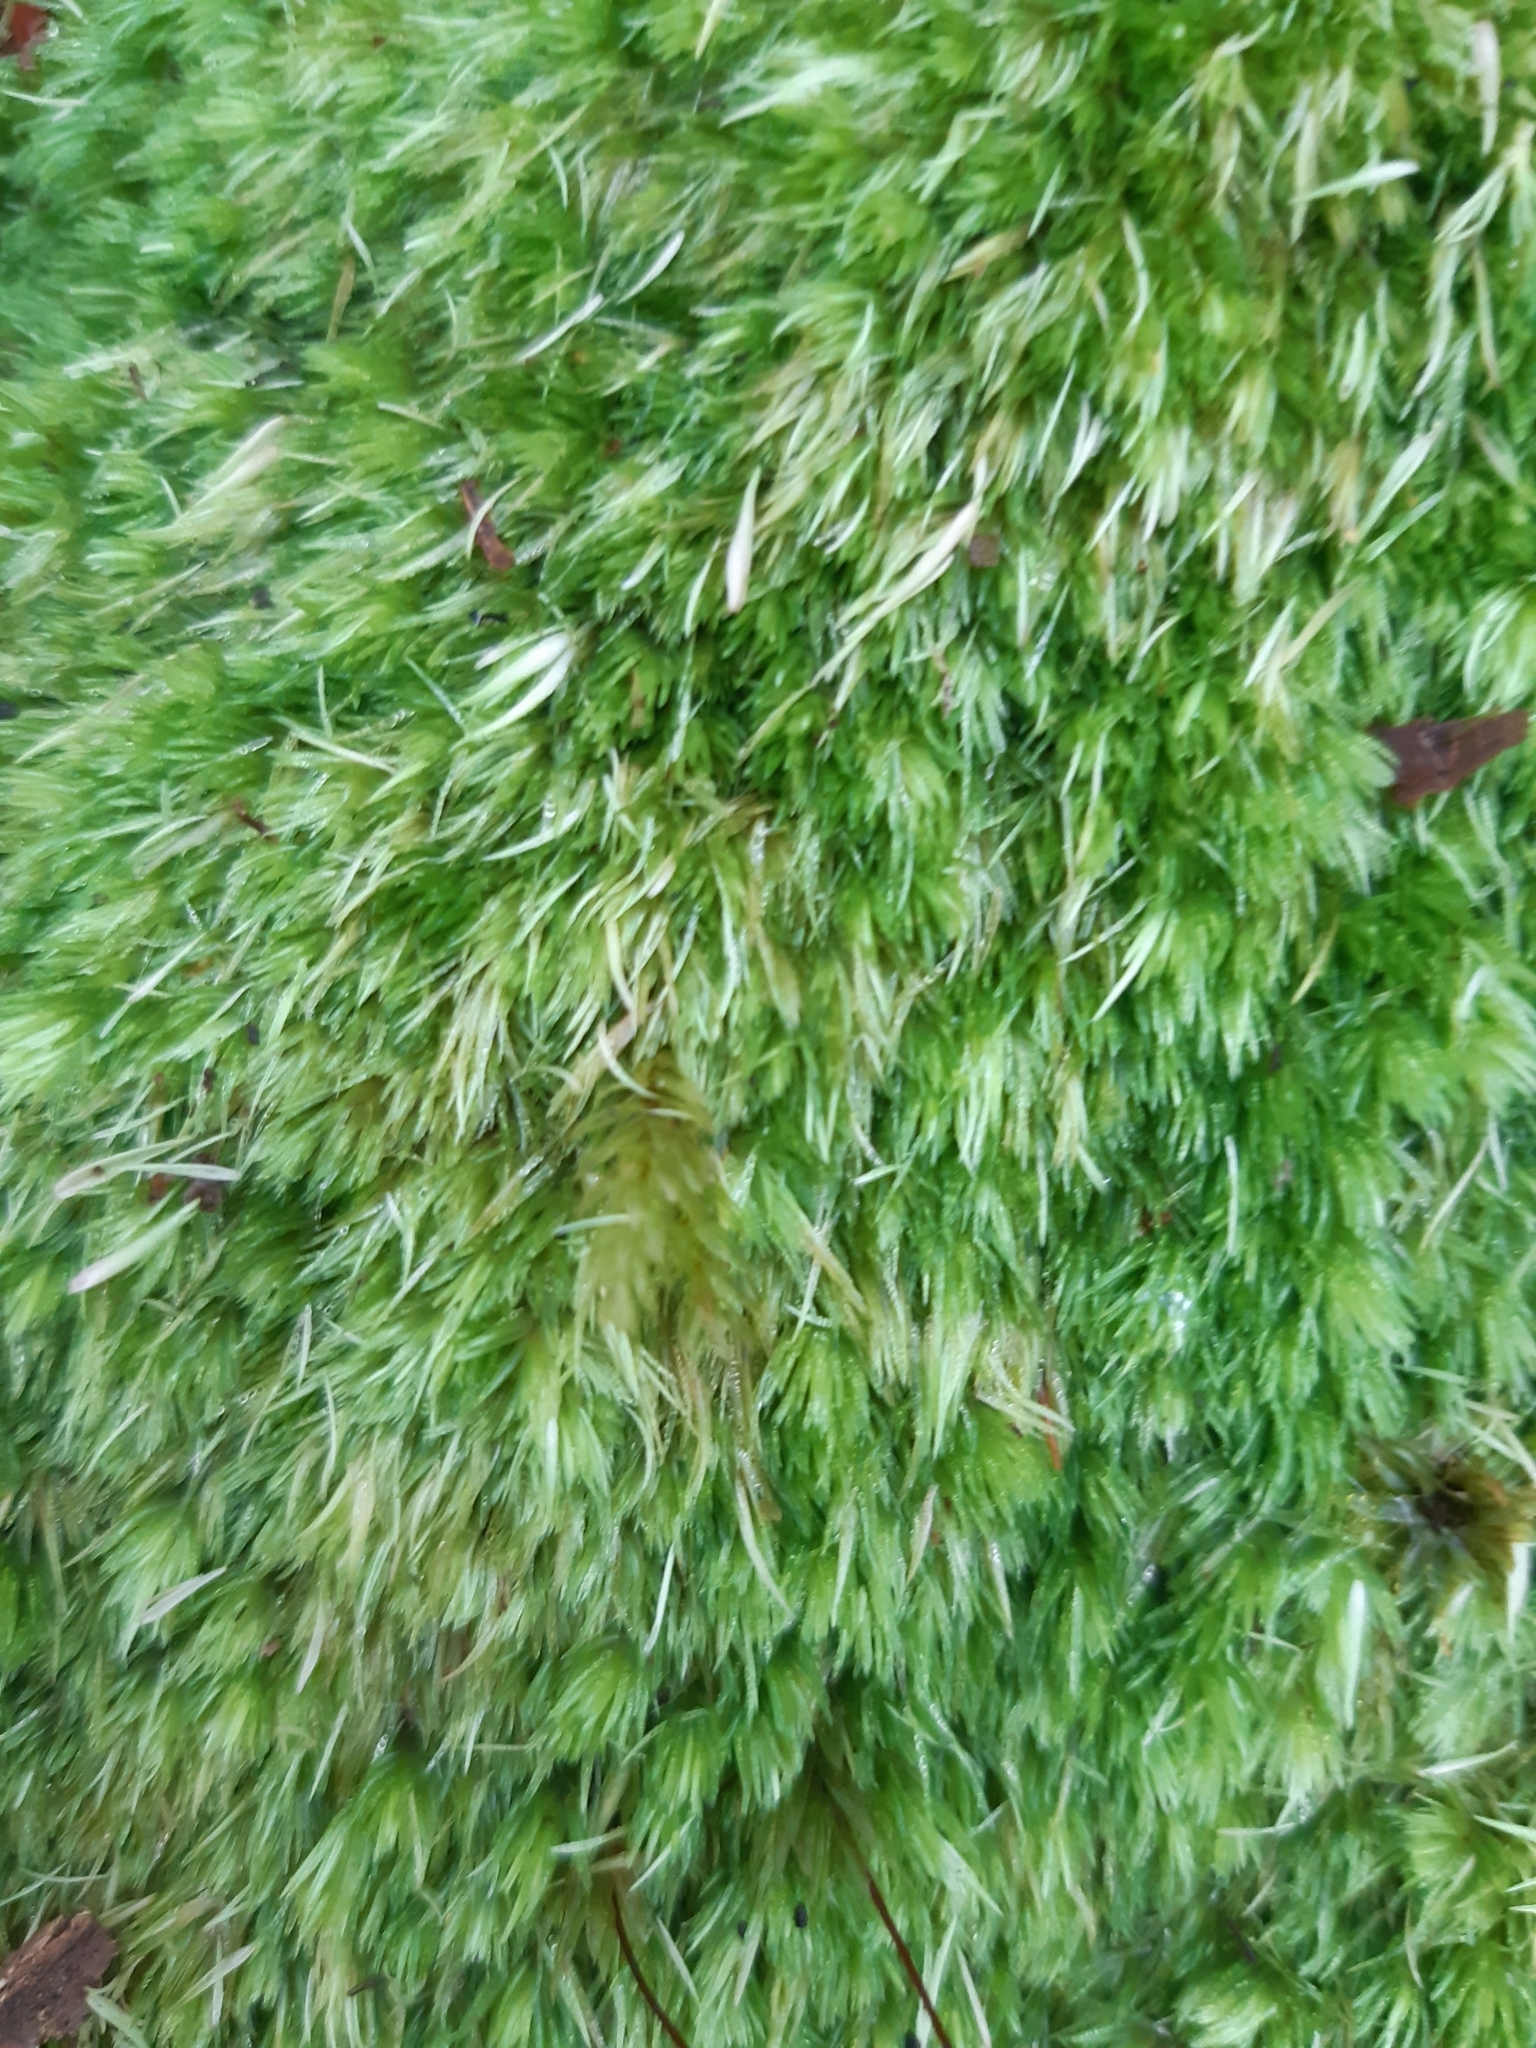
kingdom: Plantae
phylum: Bryophyta
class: Bryopsida
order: Dicranales
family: Leucobryaceae
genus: Leucobryum
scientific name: Leucobryum glaucum
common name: Large white-moss
